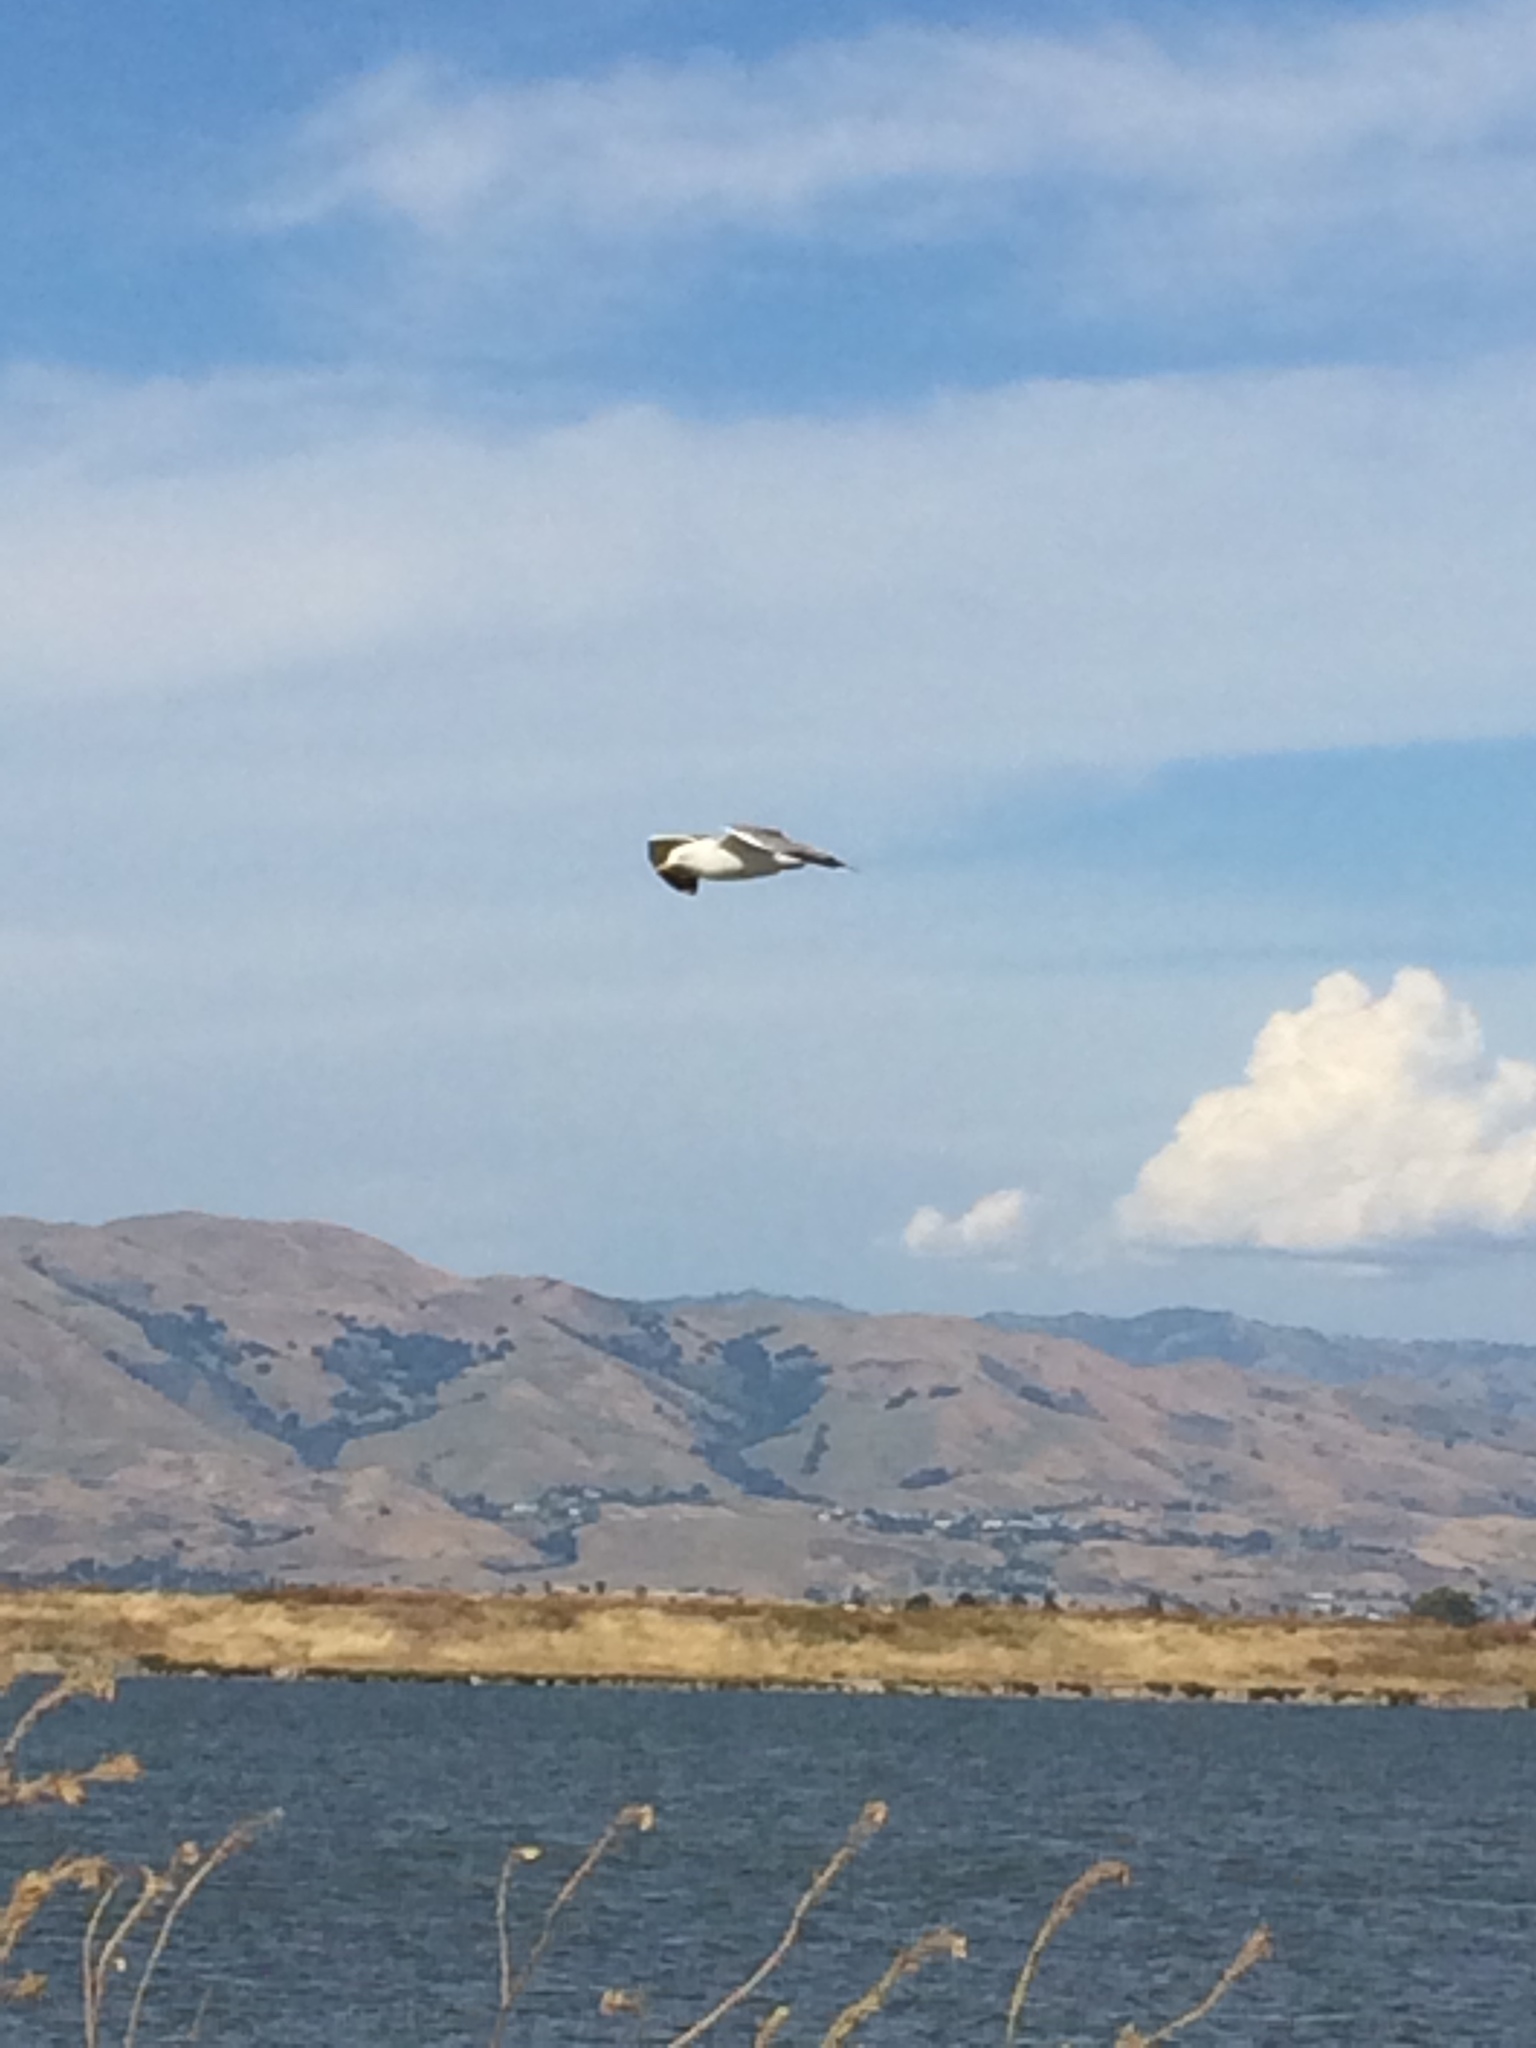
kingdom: Animalia
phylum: Chordata
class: Aves
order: Charadriiformes
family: Laridae
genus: Larus
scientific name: Larus californicus
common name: California gull
